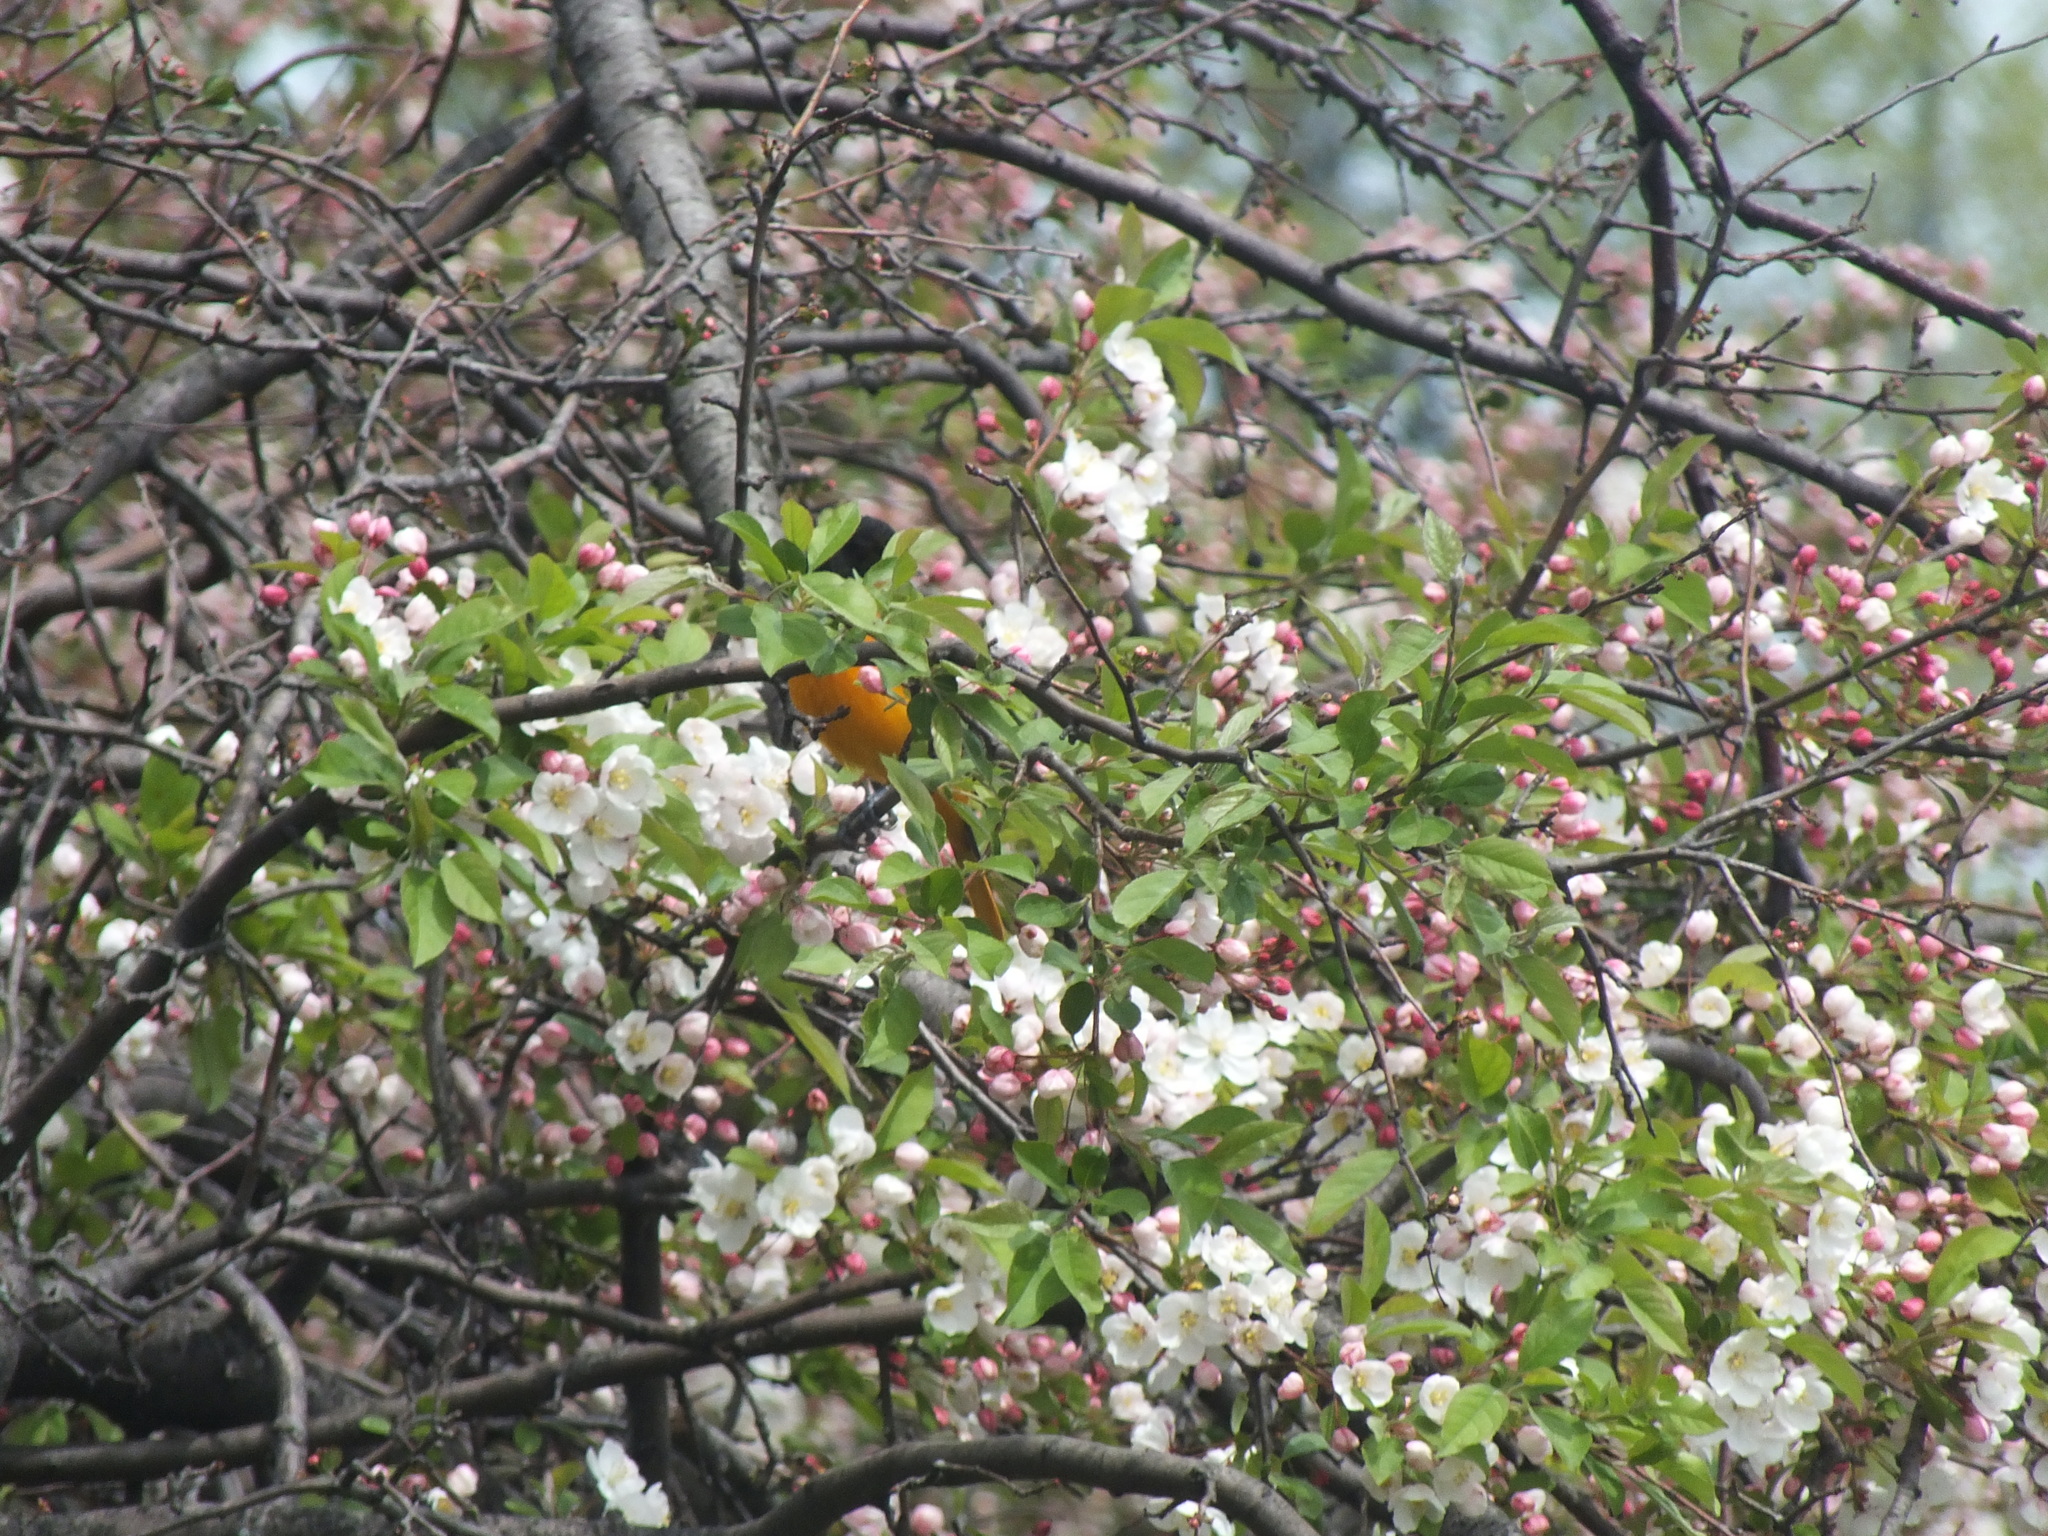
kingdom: Animalia
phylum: Chordata
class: Aves
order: Passeriformes
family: Icteridae
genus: Icterus
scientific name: Icterus galbula
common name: Baltimore oriole
